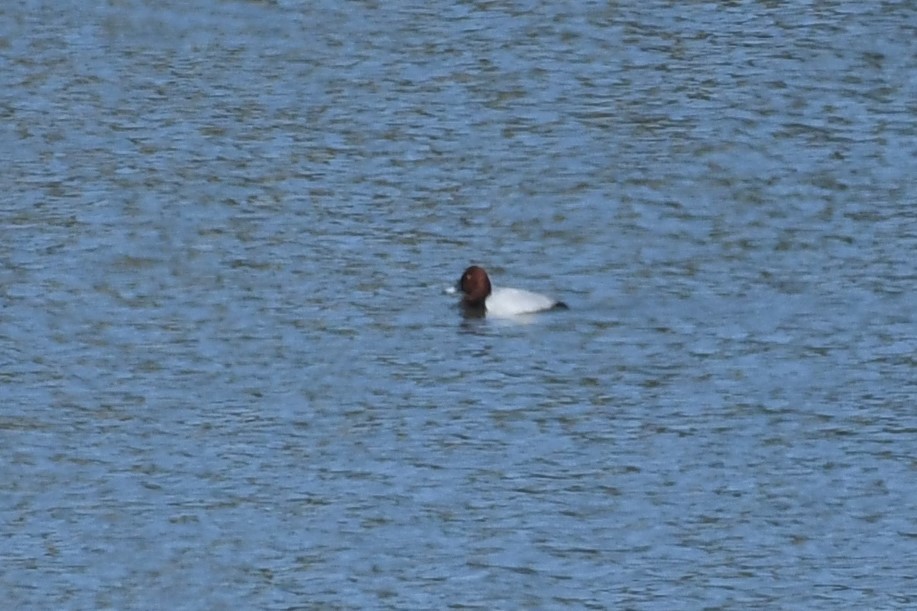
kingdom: Animalia
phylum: Chordata
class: Aves
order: Anseriformes
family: Anatidae
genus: Aythya
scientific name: Aythya ferina
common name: Common pochard
